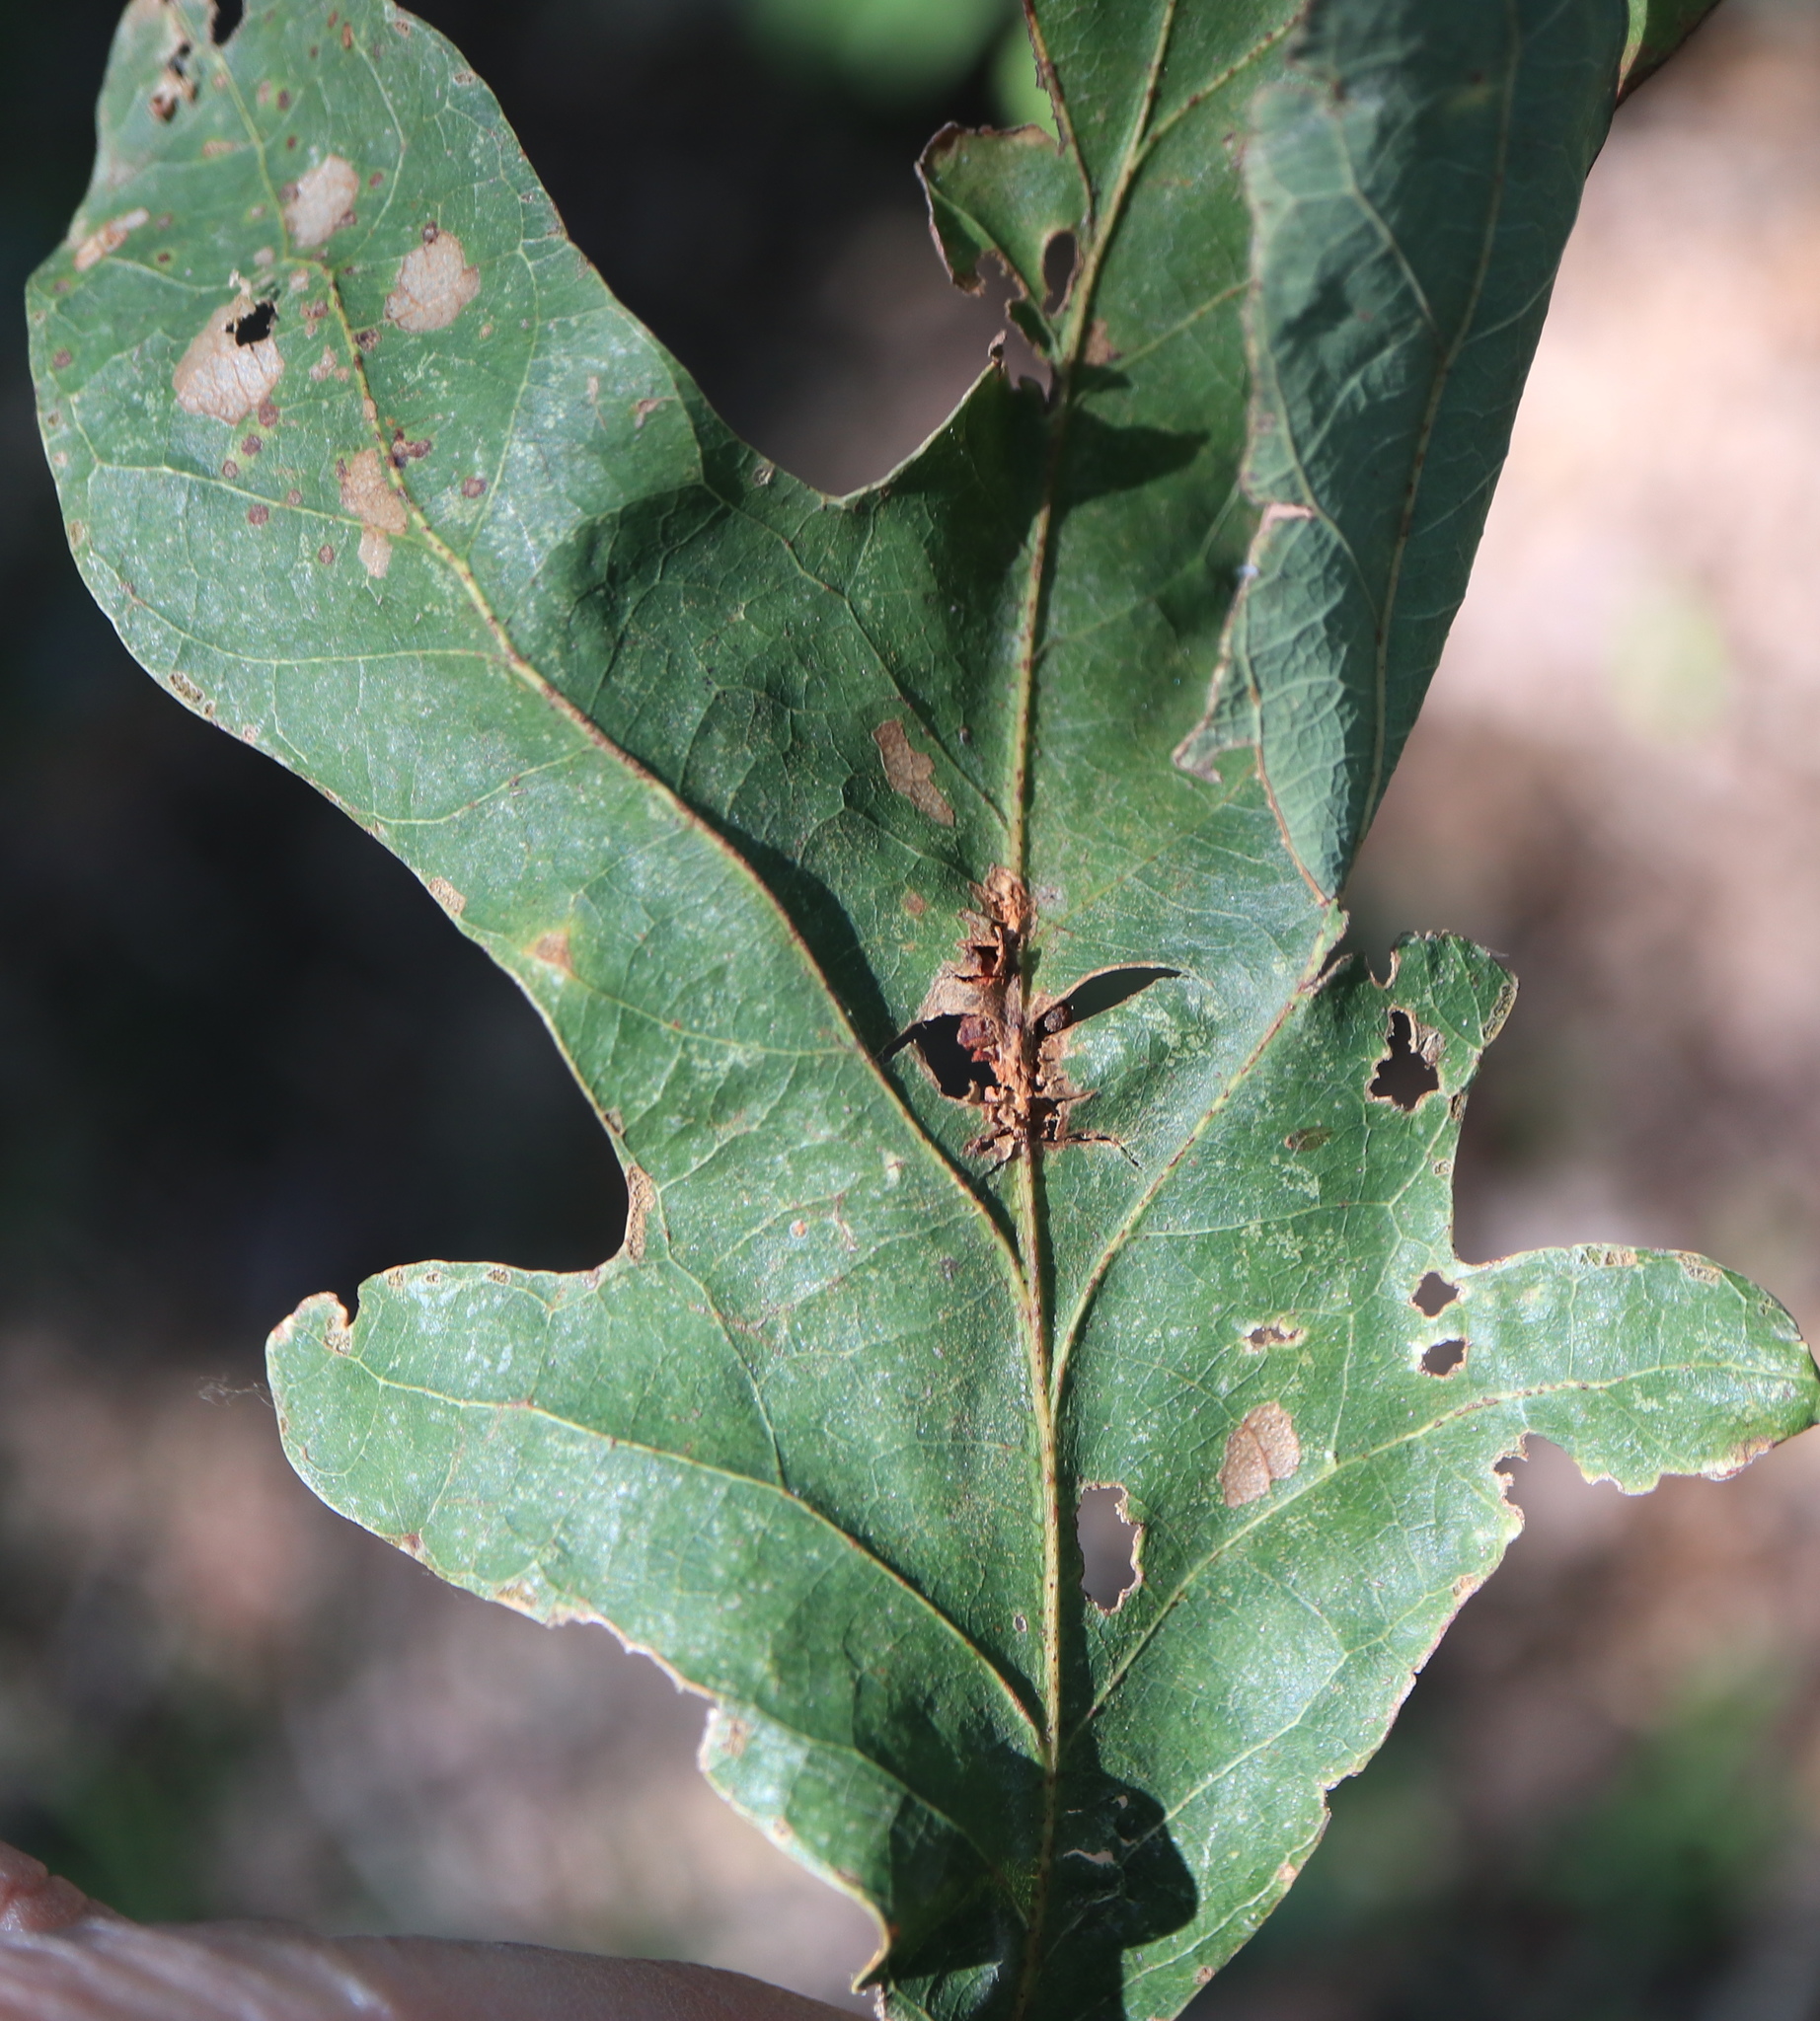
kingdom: Animalia
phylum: Arthropoda
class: Insecta
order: Hymenoptera
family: Cynipidae
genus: Andricus
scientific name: Andricus
